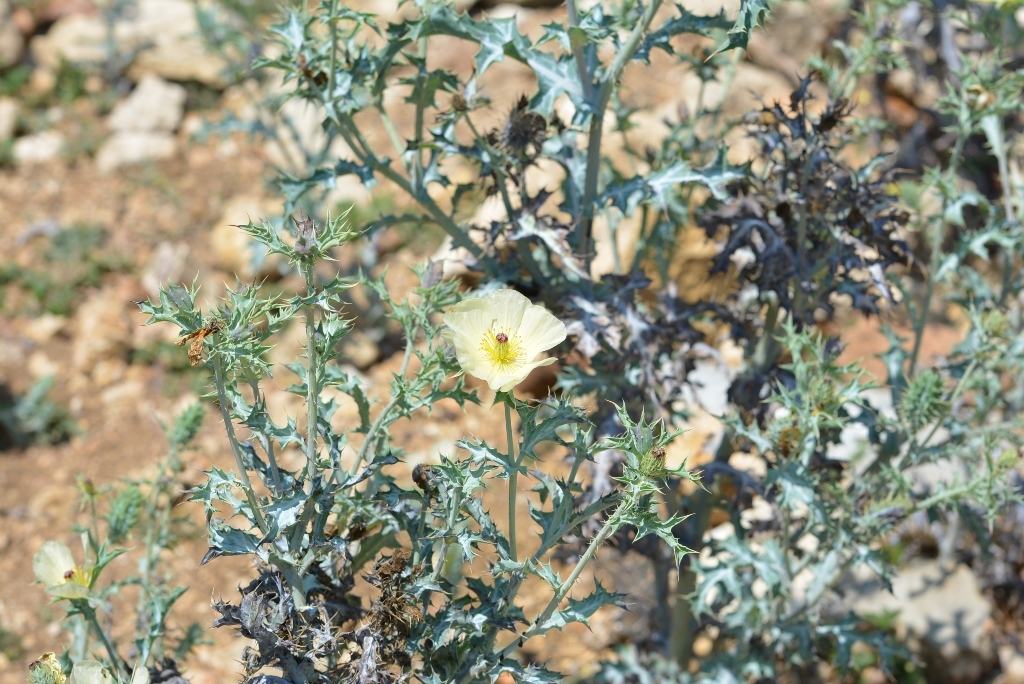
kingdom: Plantae
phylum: Tracheophyta
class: Magnoliopsida
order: Ranunculales
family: Papaveraceae
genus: Argemone
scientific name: Argemone ochroleuca
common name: White-flower mexican-poppy
